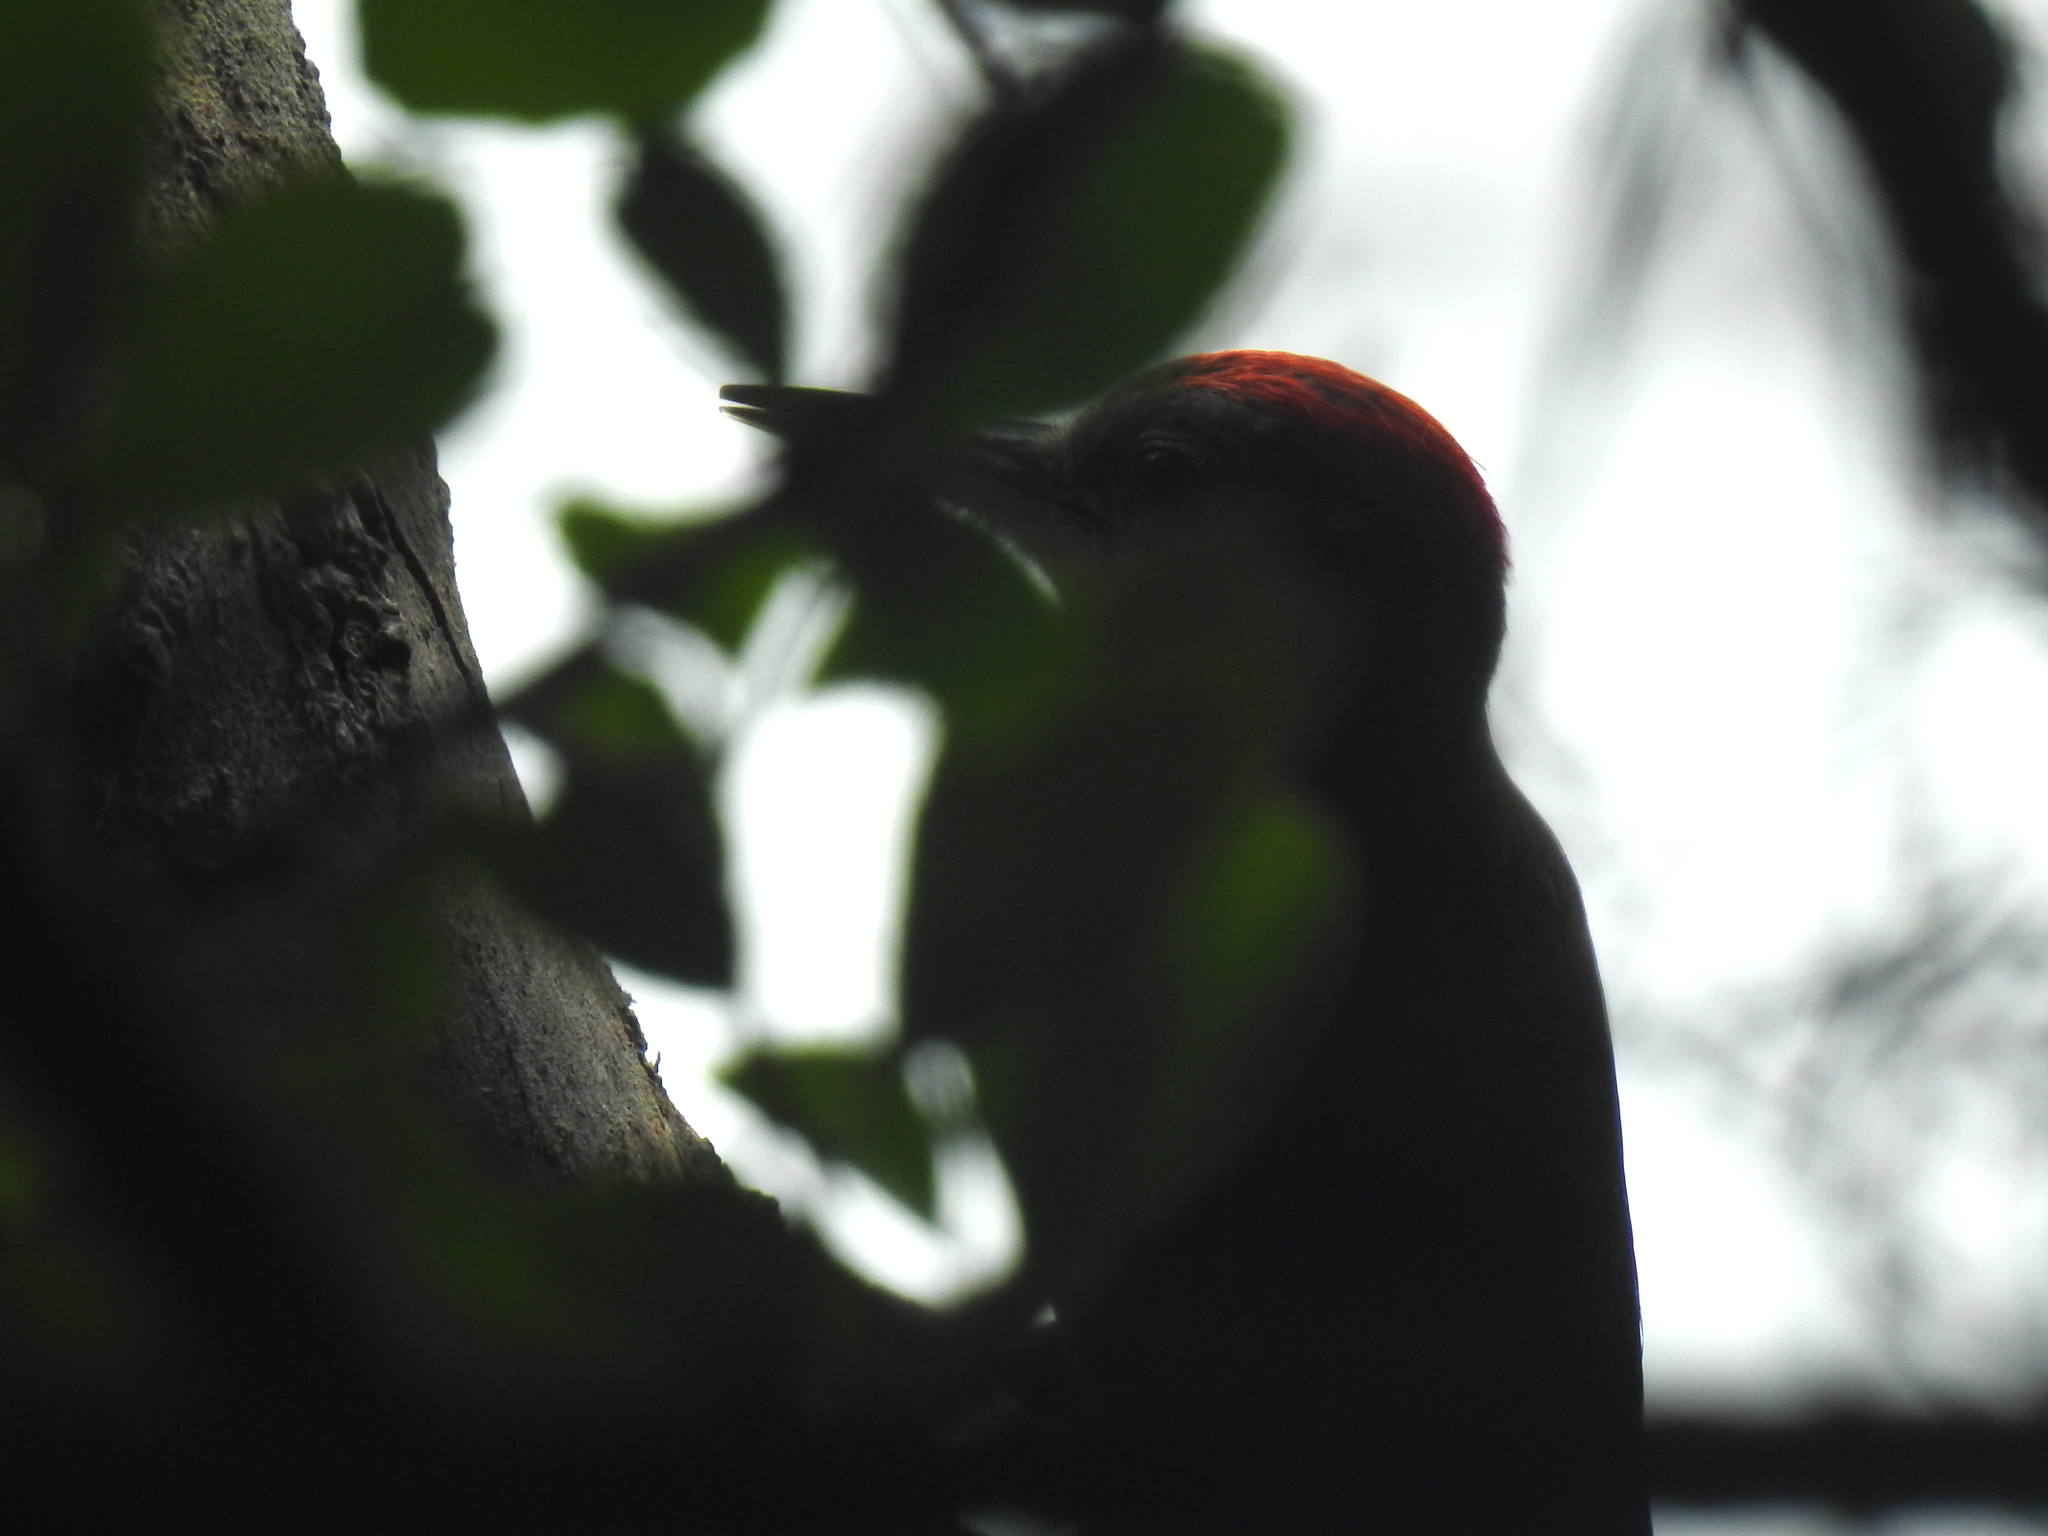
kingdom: Animalia
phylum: Chordata
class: Aves
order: Piciformes
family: Picidae
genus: Dendropicos
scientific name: Dendropicos griseocephalus
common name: Olive woodpecker
